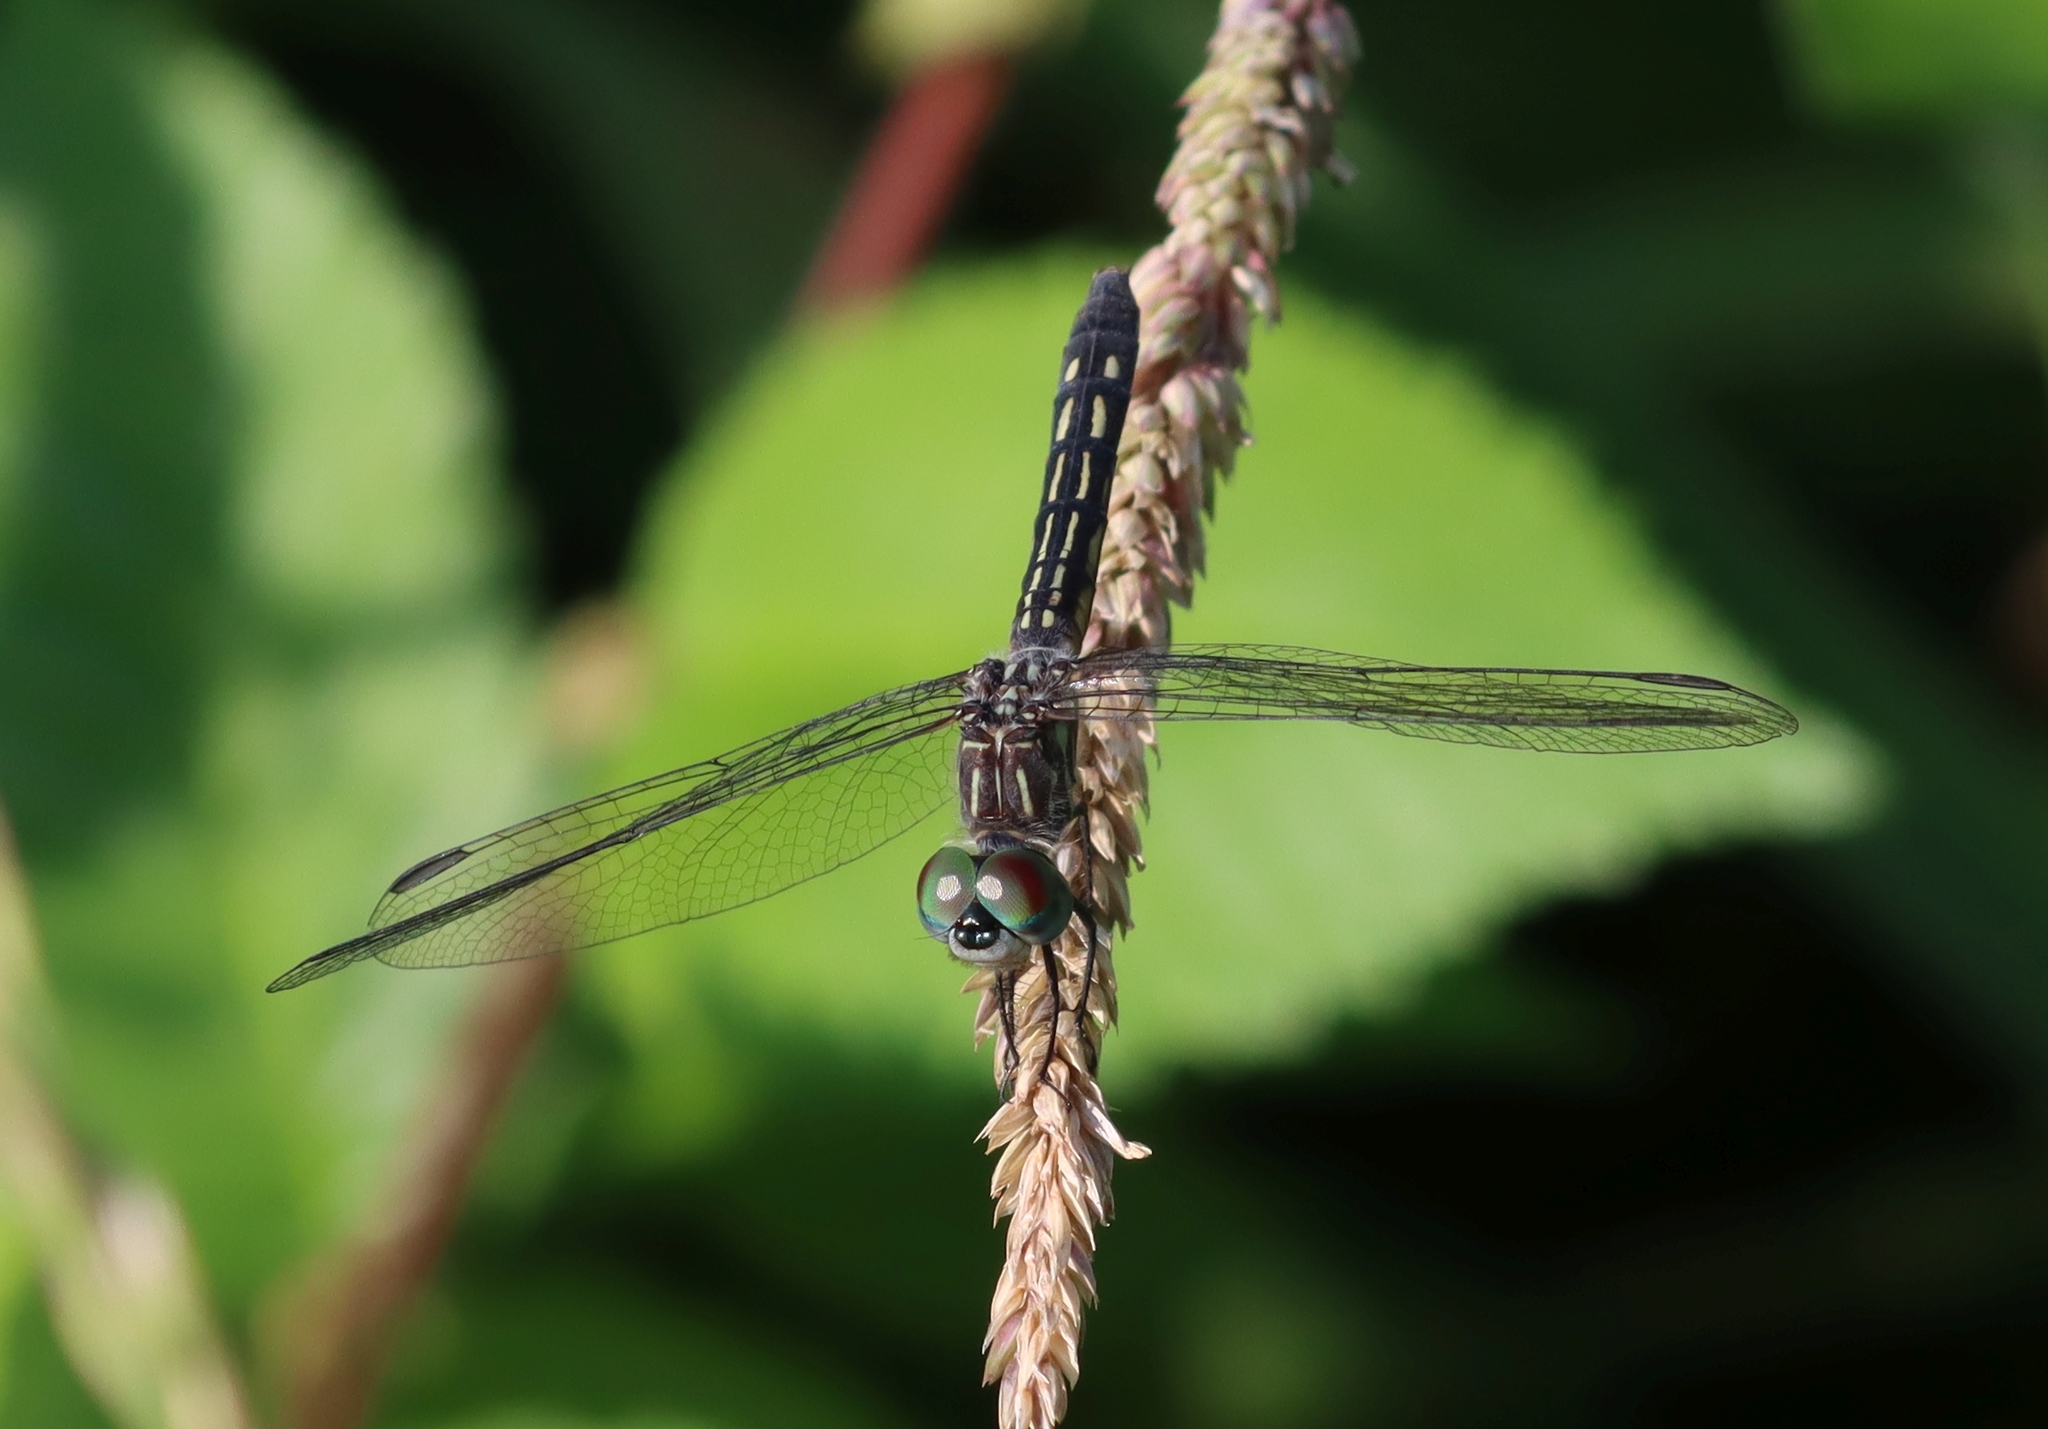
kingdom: Animalia
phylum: Arthropoda
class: Insecta
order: Odonata
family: Libellulidae
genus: Pachydiplax
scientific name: Pachydiplax longipennis
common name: Blue dasher
